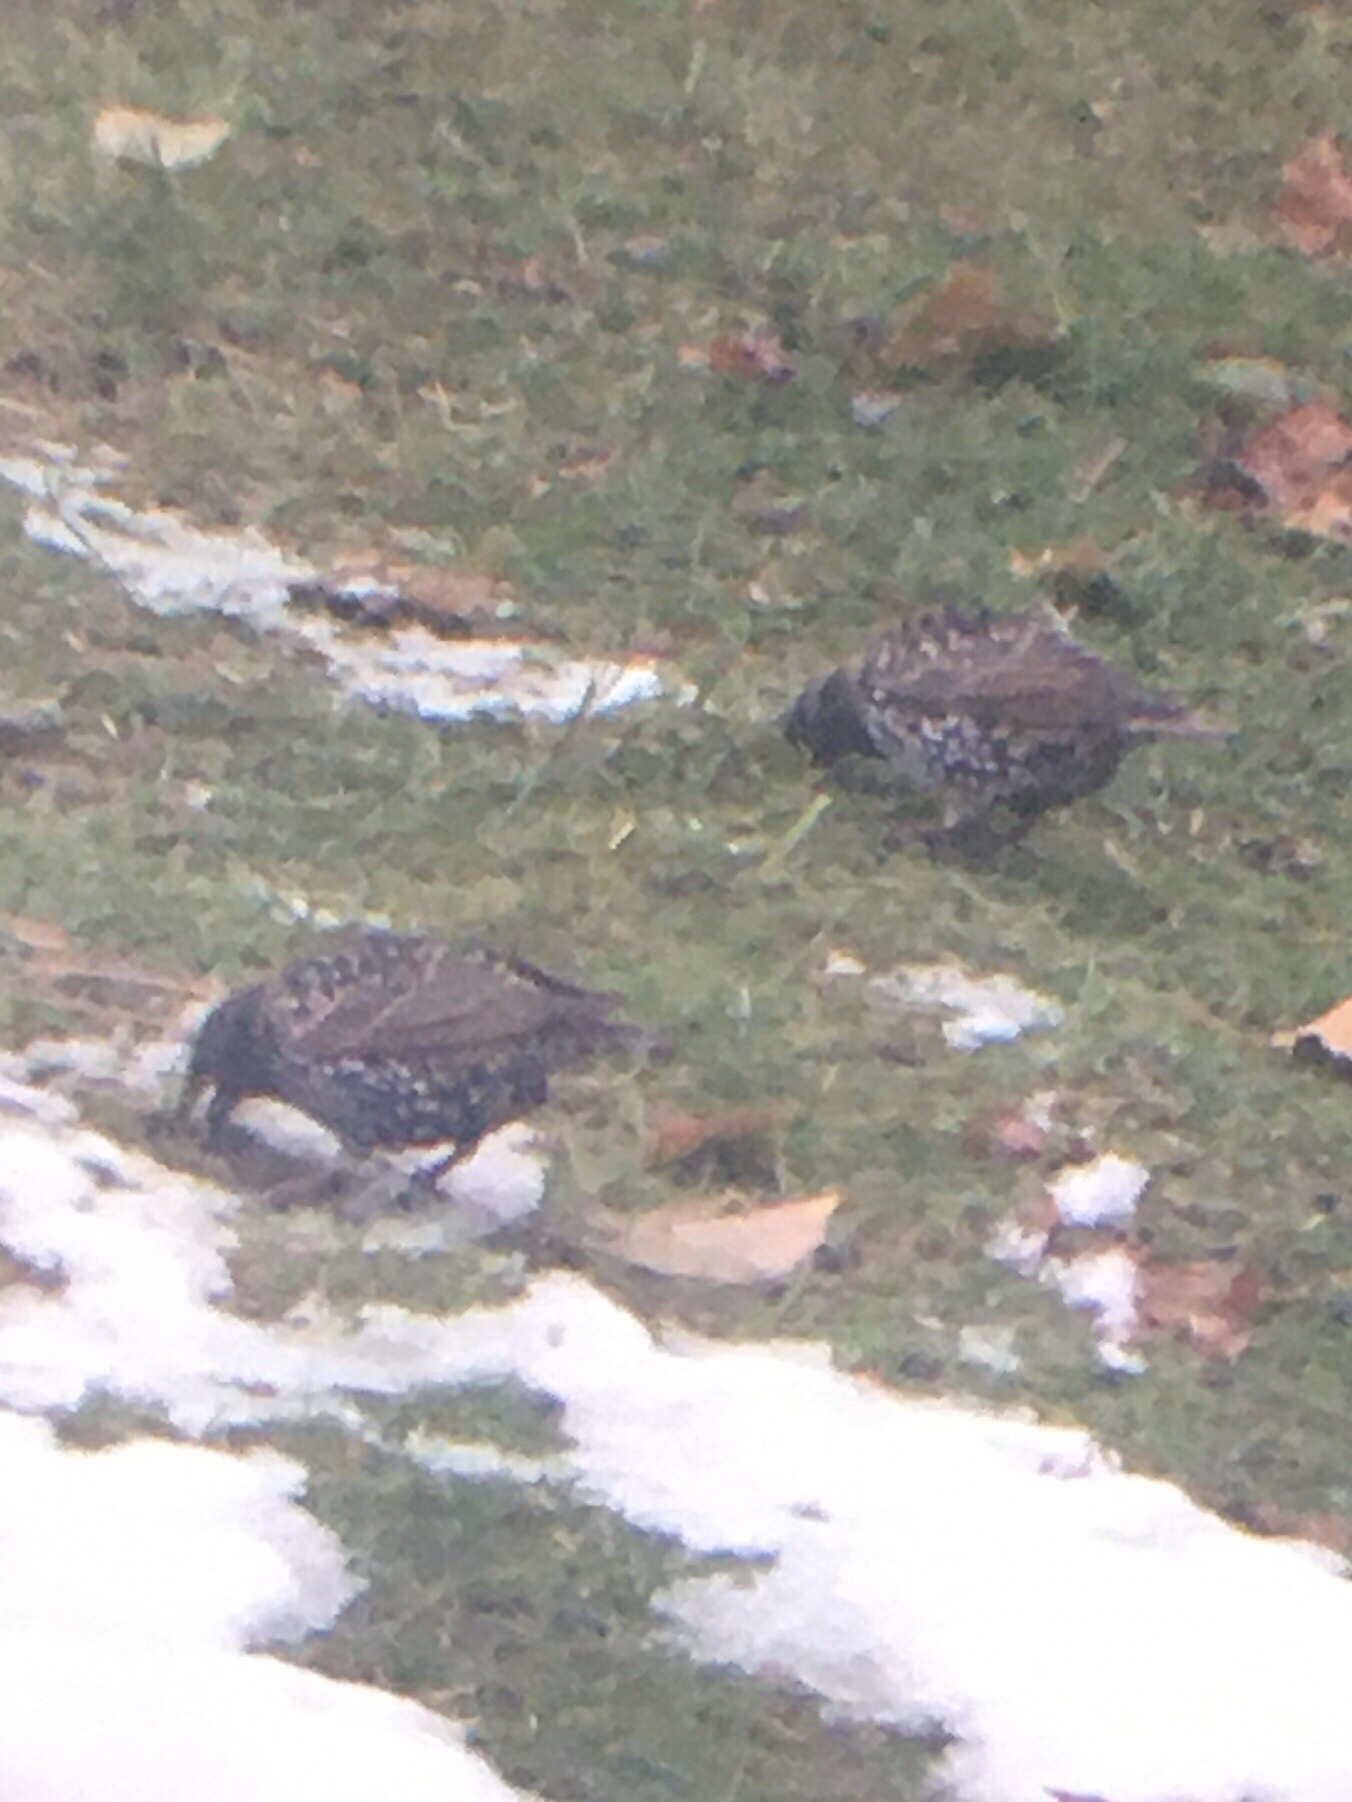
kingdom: Animalia
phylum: Chordata
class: Aves
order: Passeriformes
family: Sturnidae
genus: Sturnus
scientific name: Sturnus vulgaris
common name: Common starling
